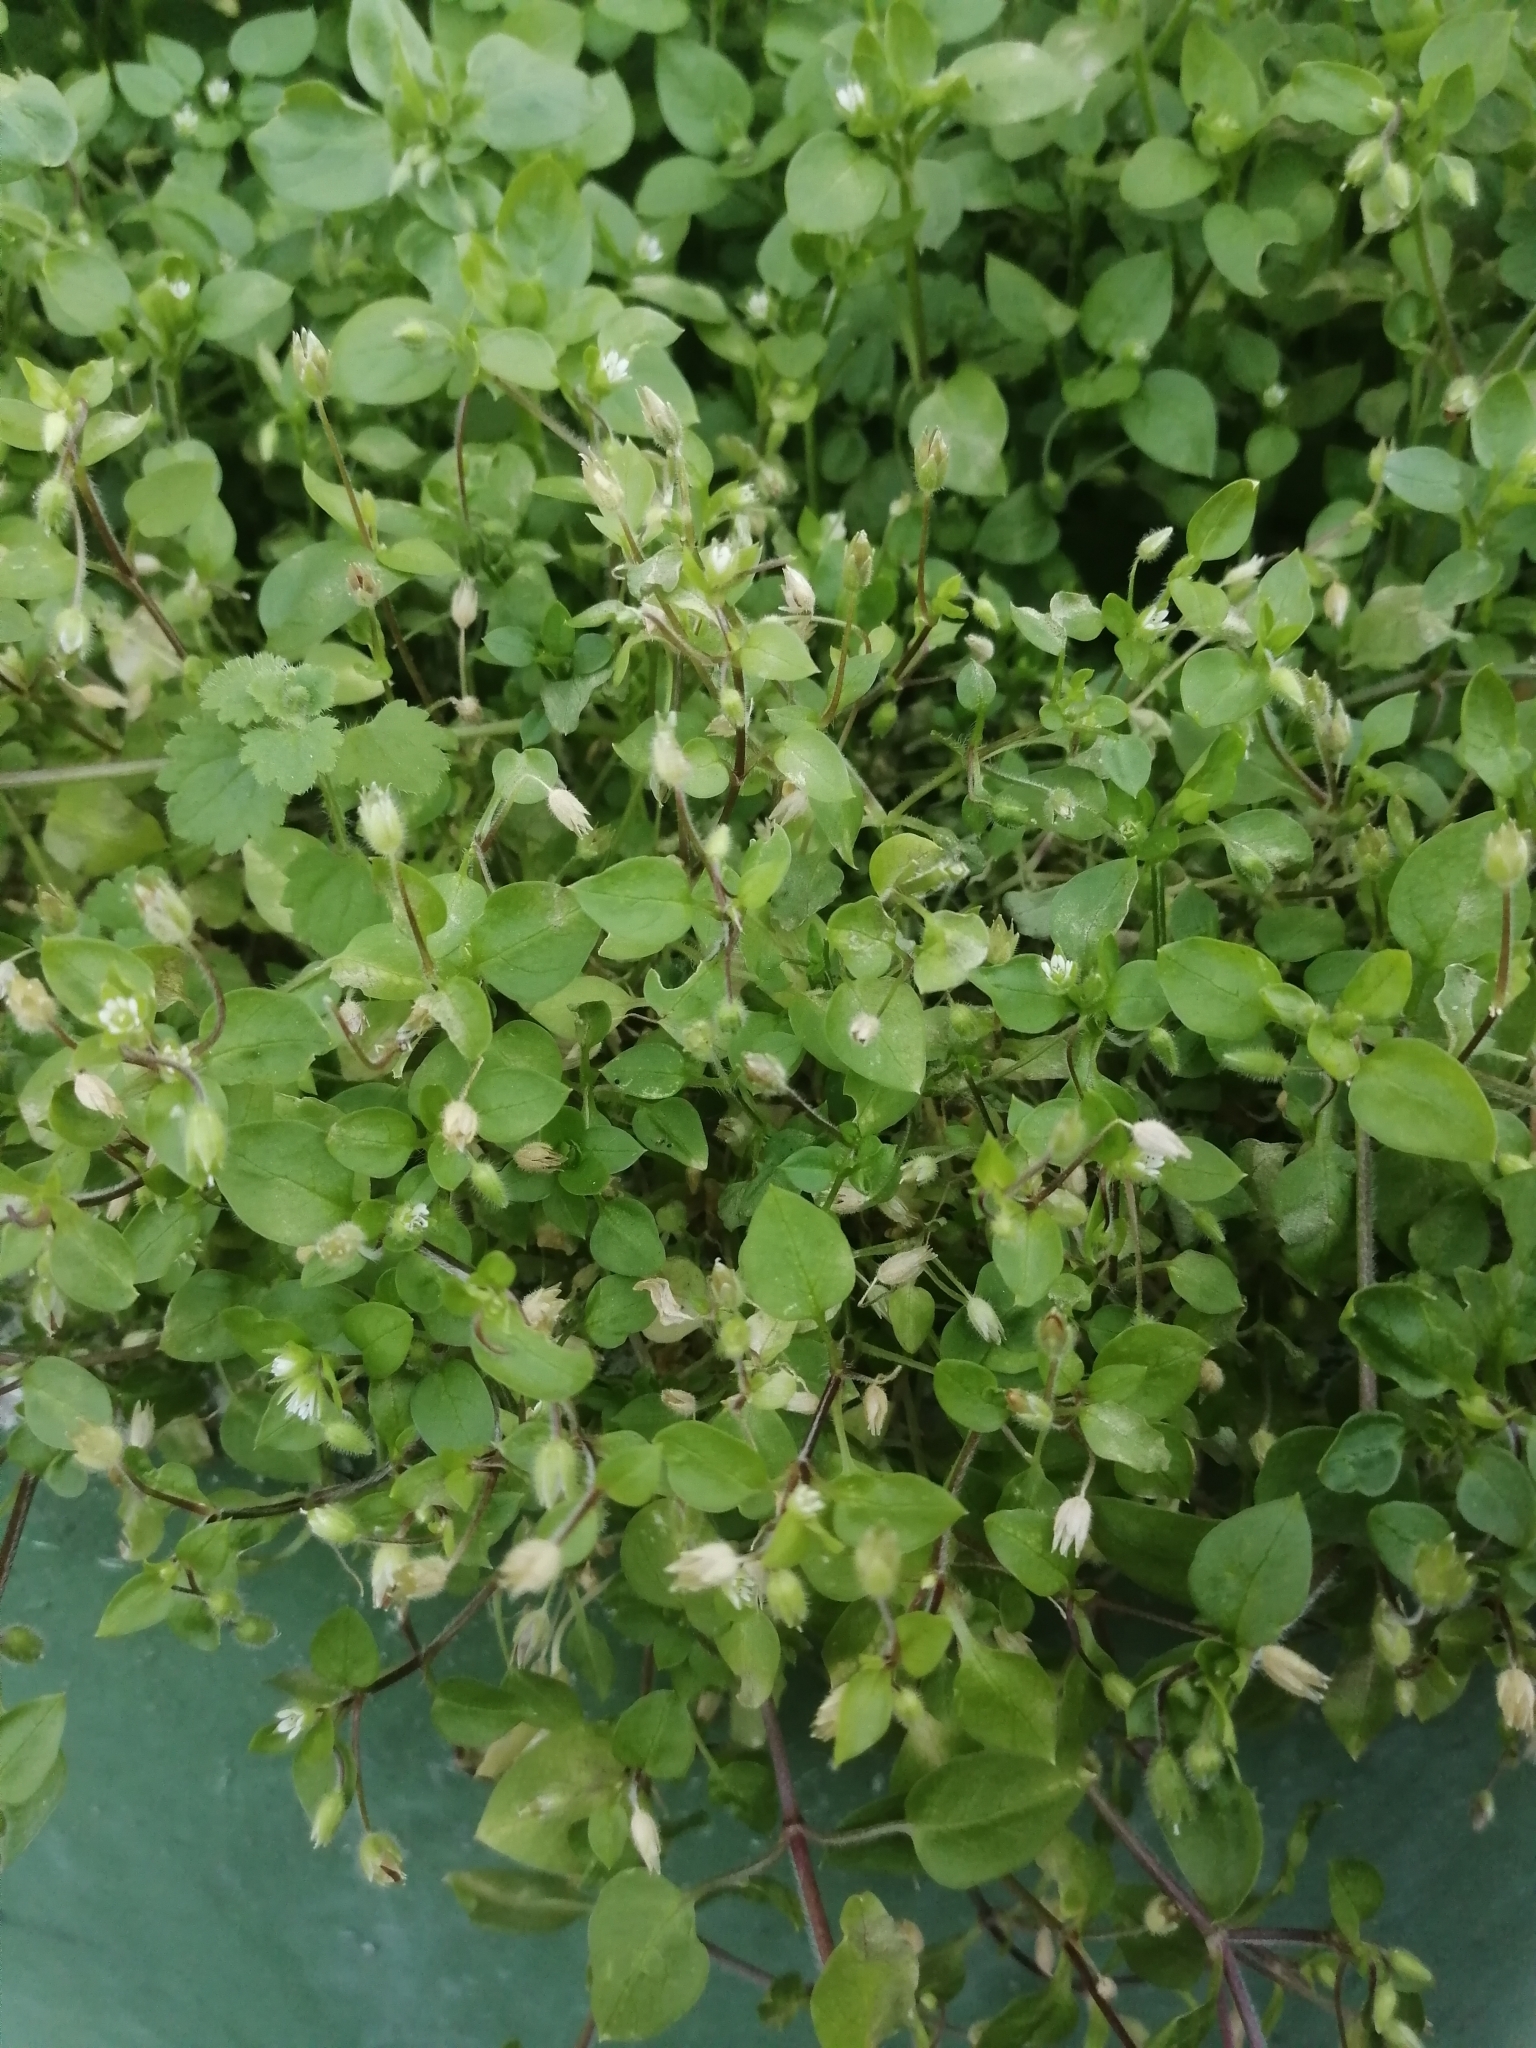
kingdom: Plantae
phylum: Tracheophyta
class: Magnoliopsida
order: Caryophyllales
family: Caryophyllaceae
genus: Stellaria
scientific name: Stellaria media
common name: Common chickweed
